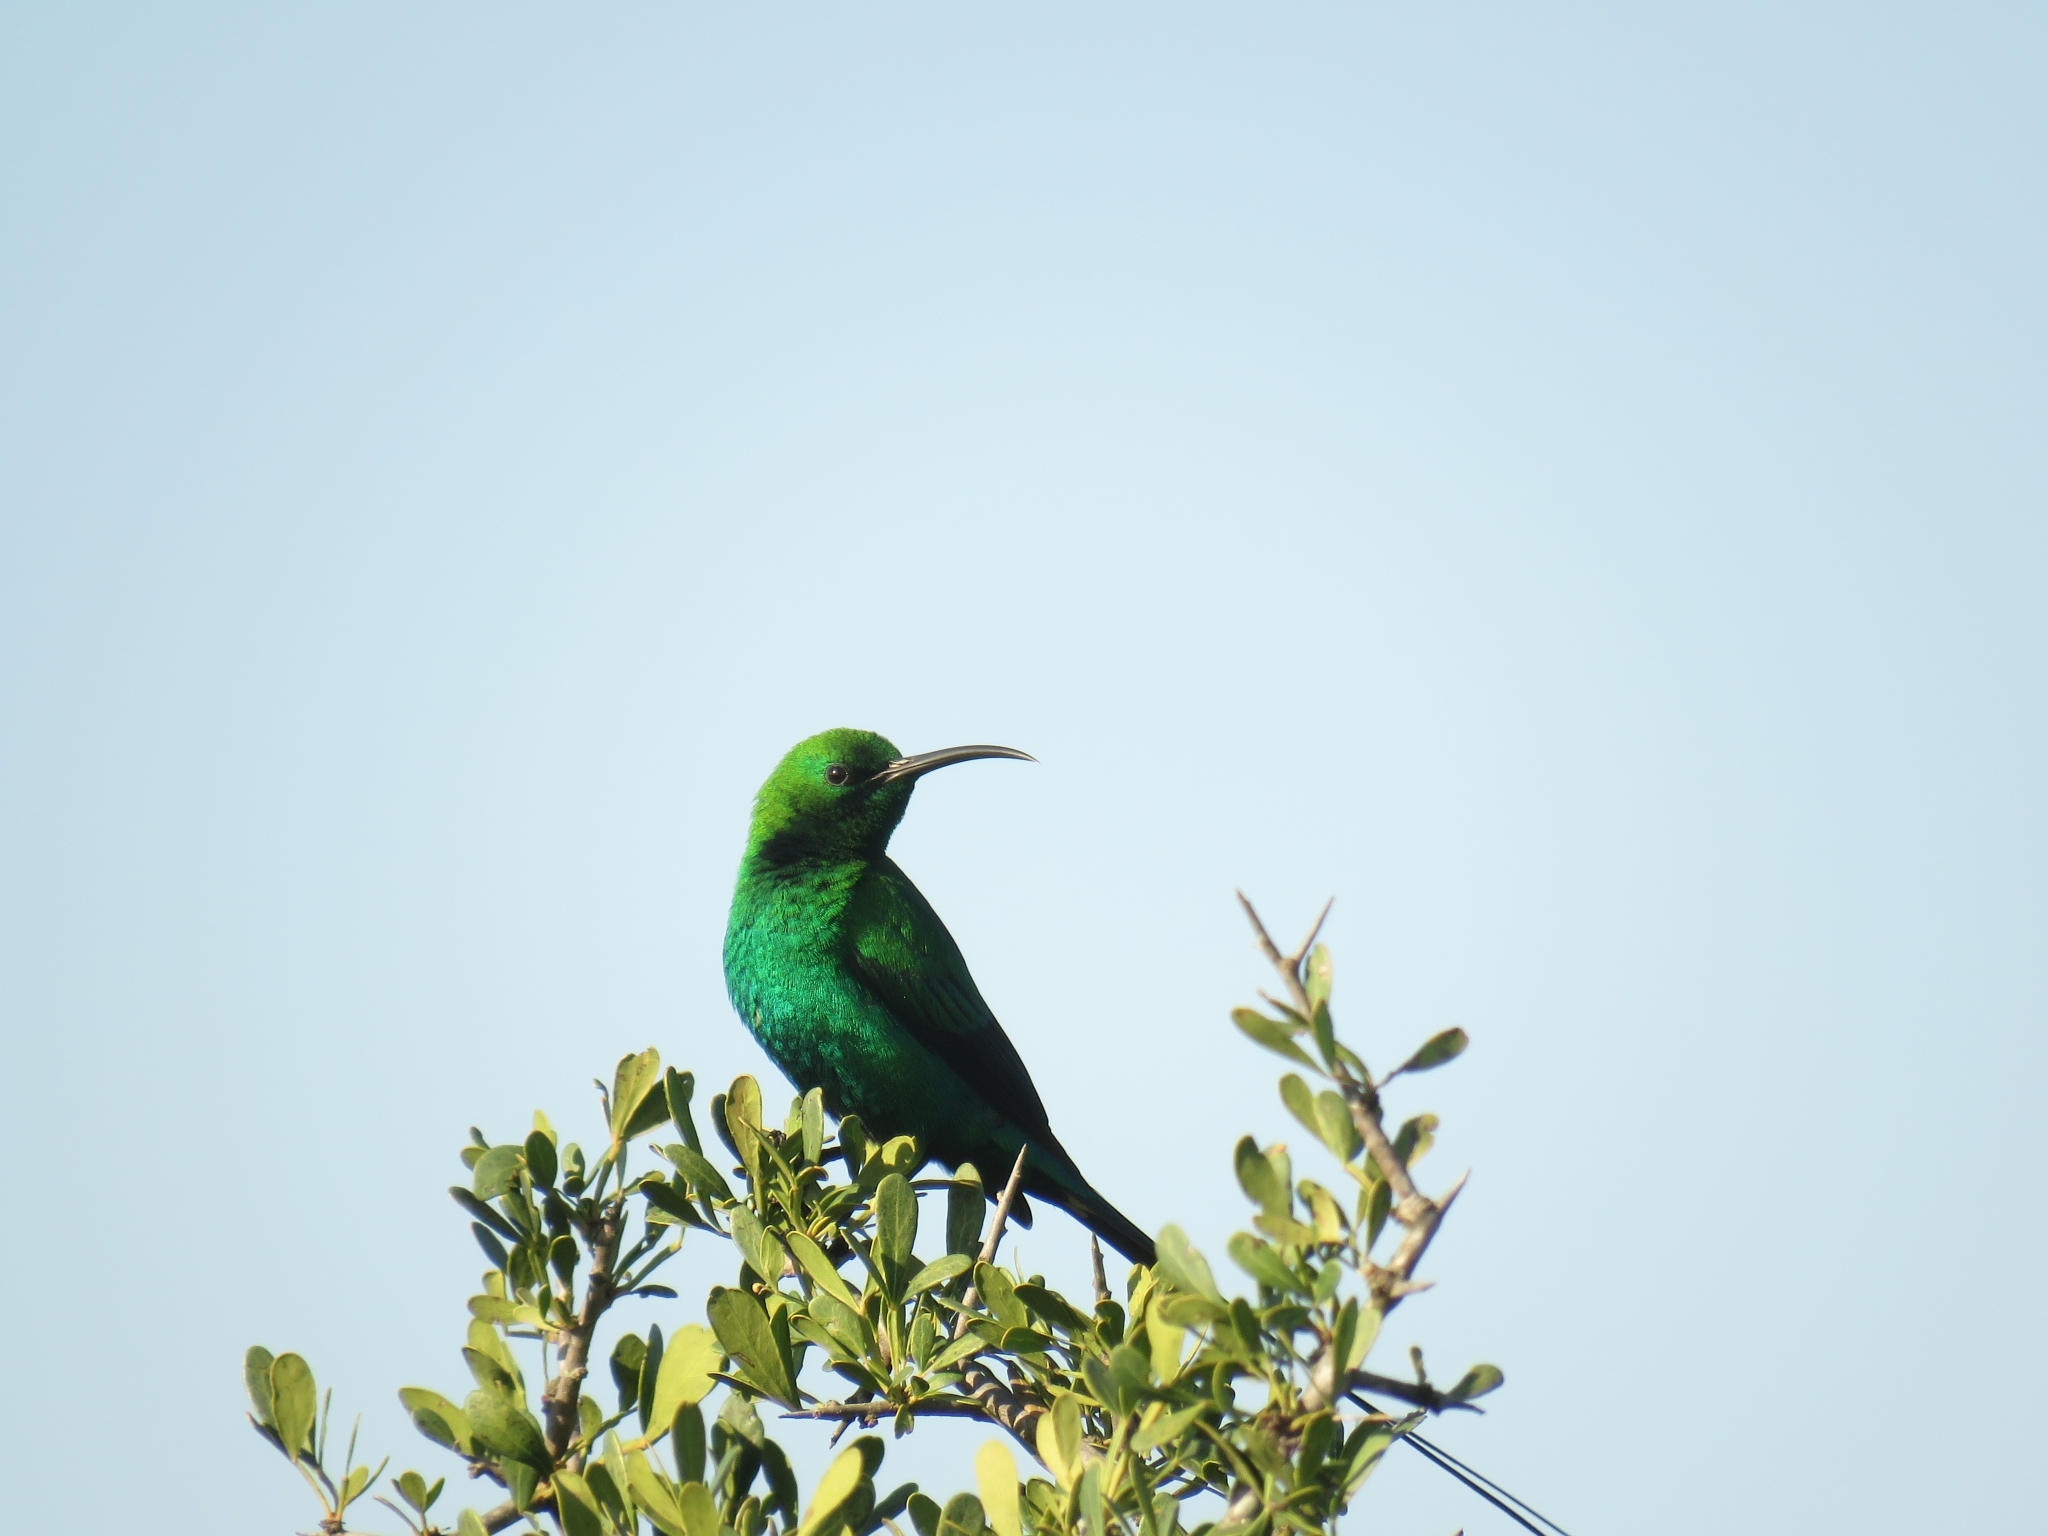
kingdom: Animalia
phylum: Chordata
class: Aves
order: Passeriformes
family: Nectariniidae
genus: Nectarinia
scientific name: Nectarinia famosa
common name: Malachite sunbird
